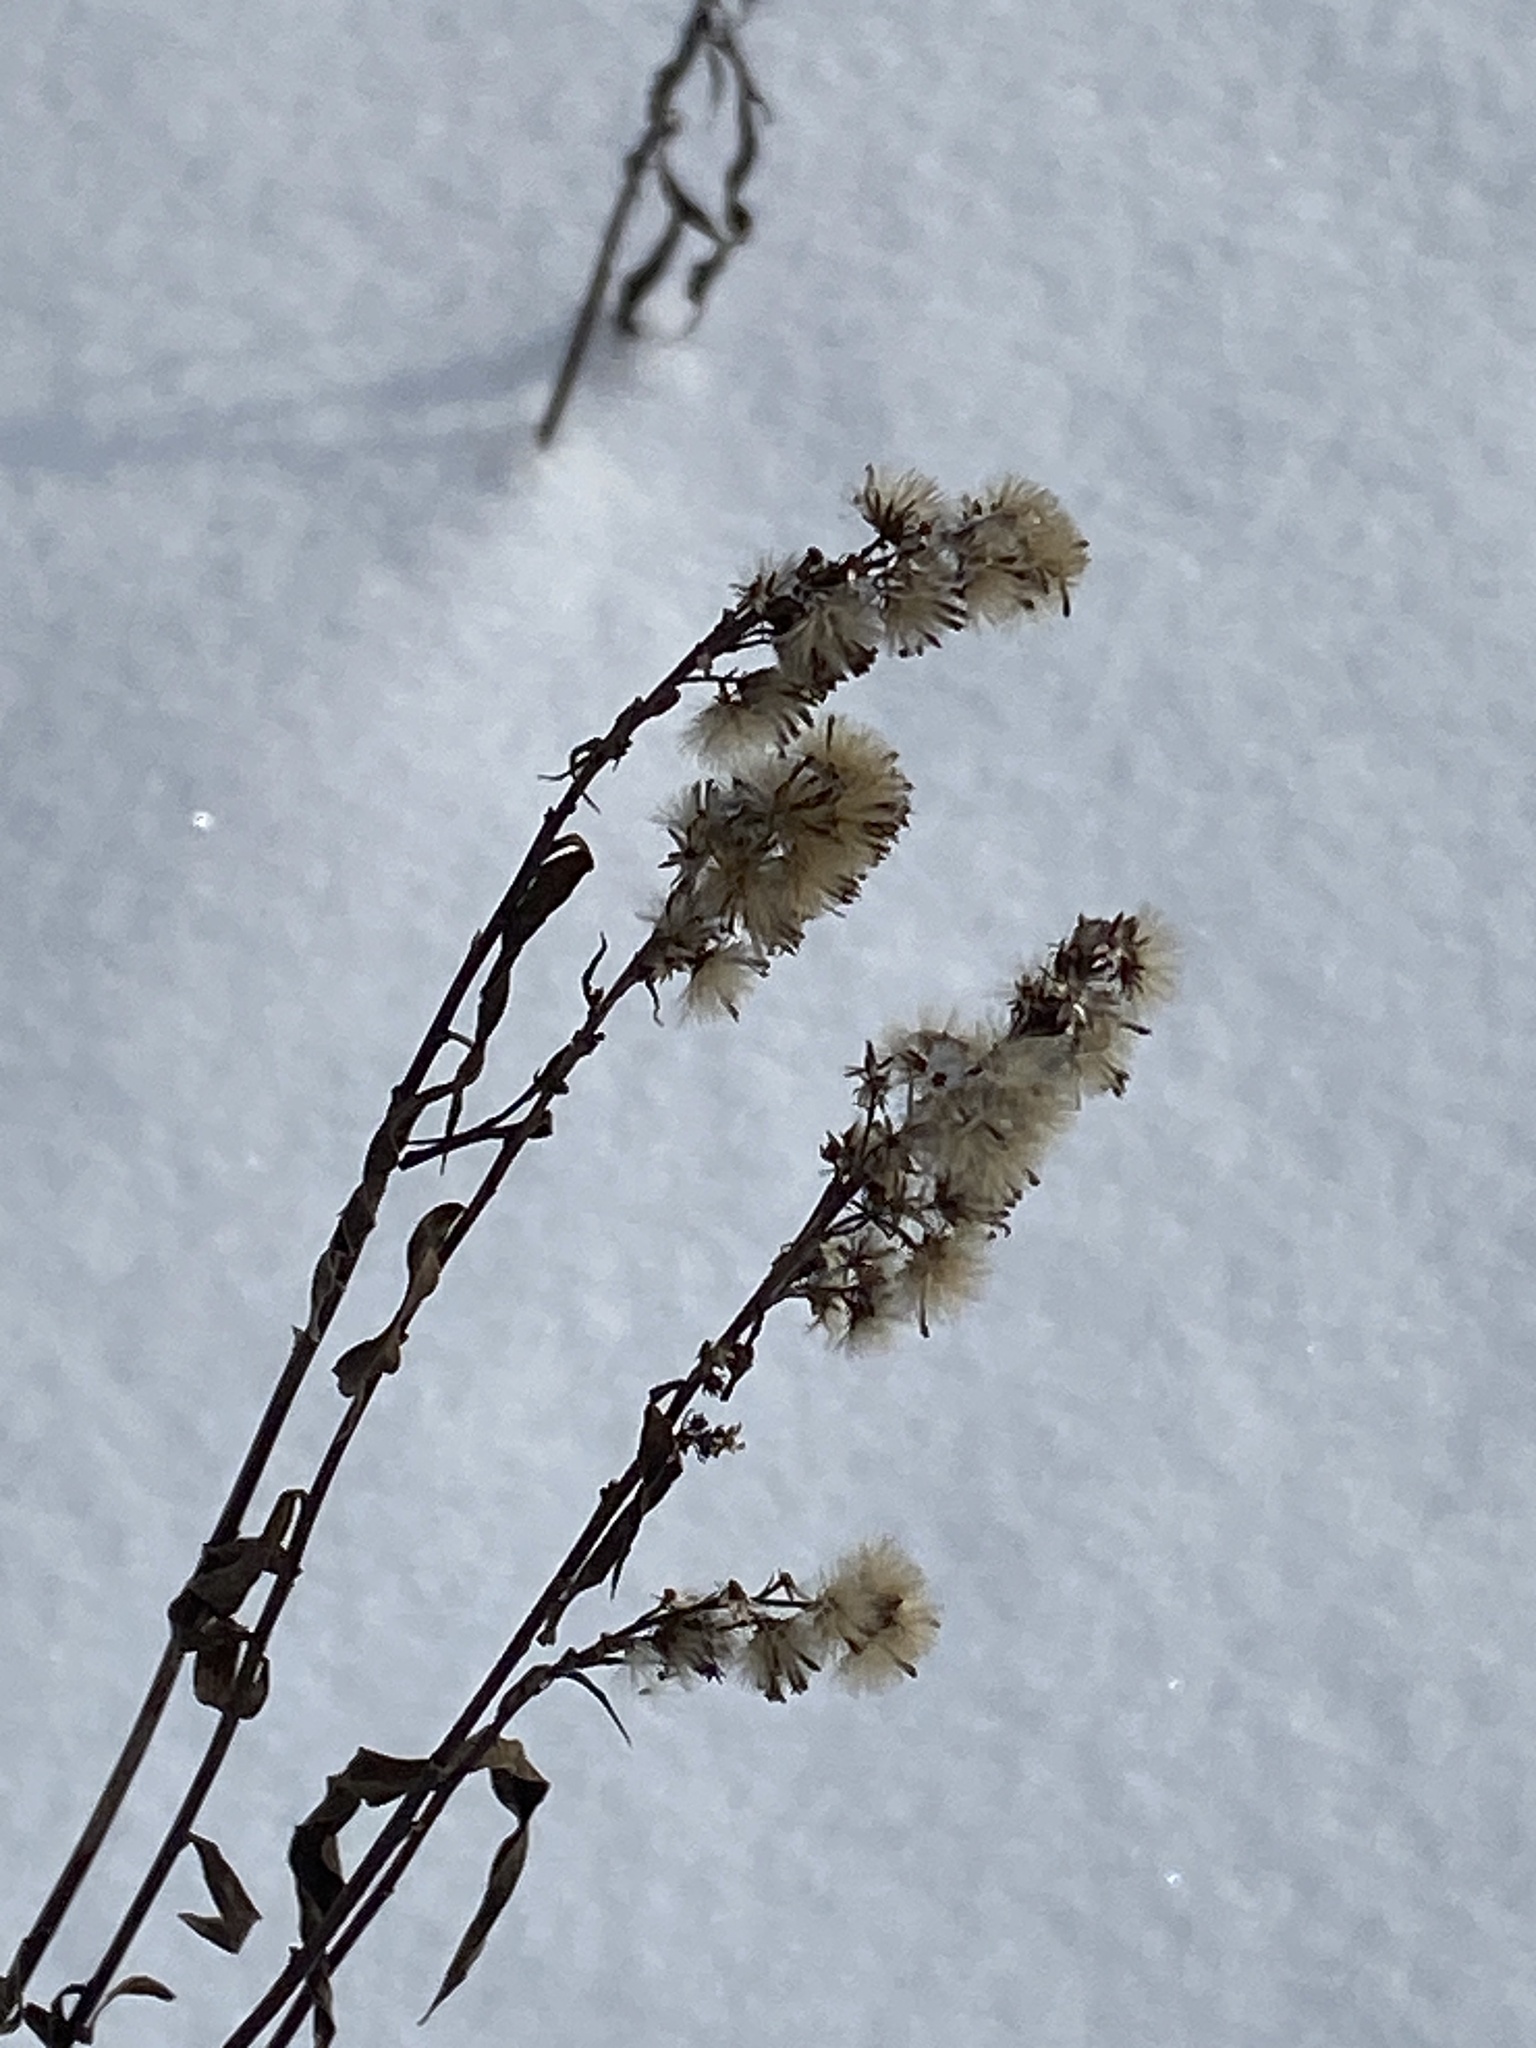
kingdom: Plantae
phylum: Tracheophyta
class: Magnoliopsida
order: Asterales
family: Asteraceae
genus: Solidago
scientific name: Solidago virgaurea
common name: Goldenrod
